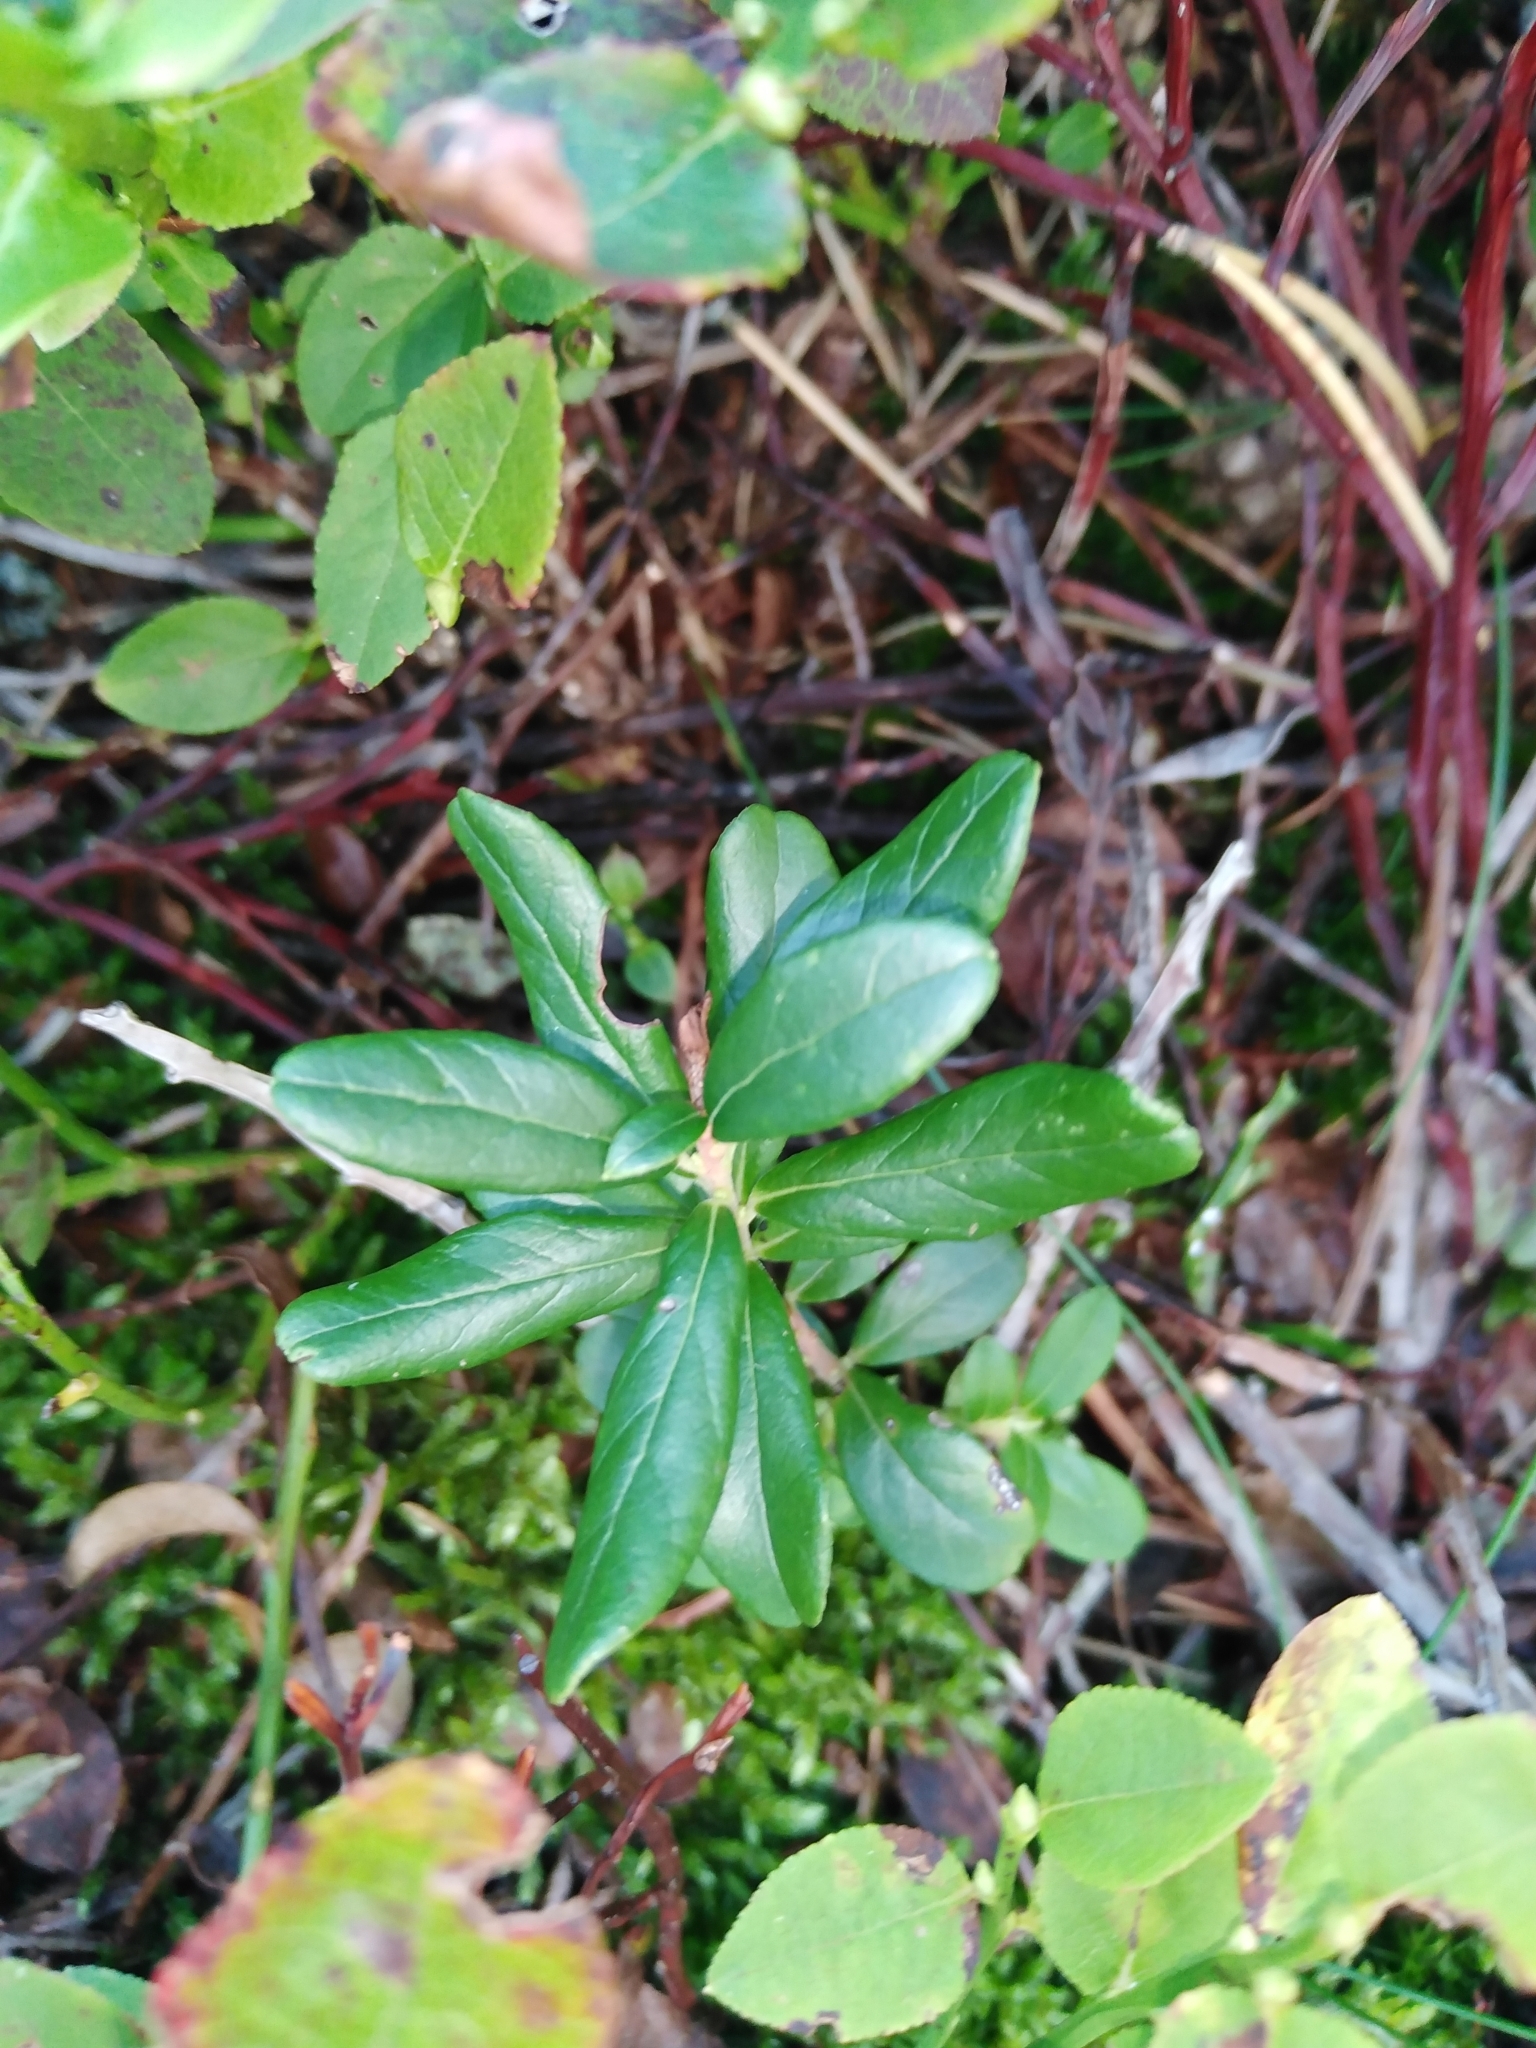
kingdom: Plantae
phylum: Tracheophyta
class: Magnoliopsida
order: Ericales
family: Ericaceae
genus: Vaccinium
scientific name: Vaccinium vitis-idaea
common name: Cowberry
